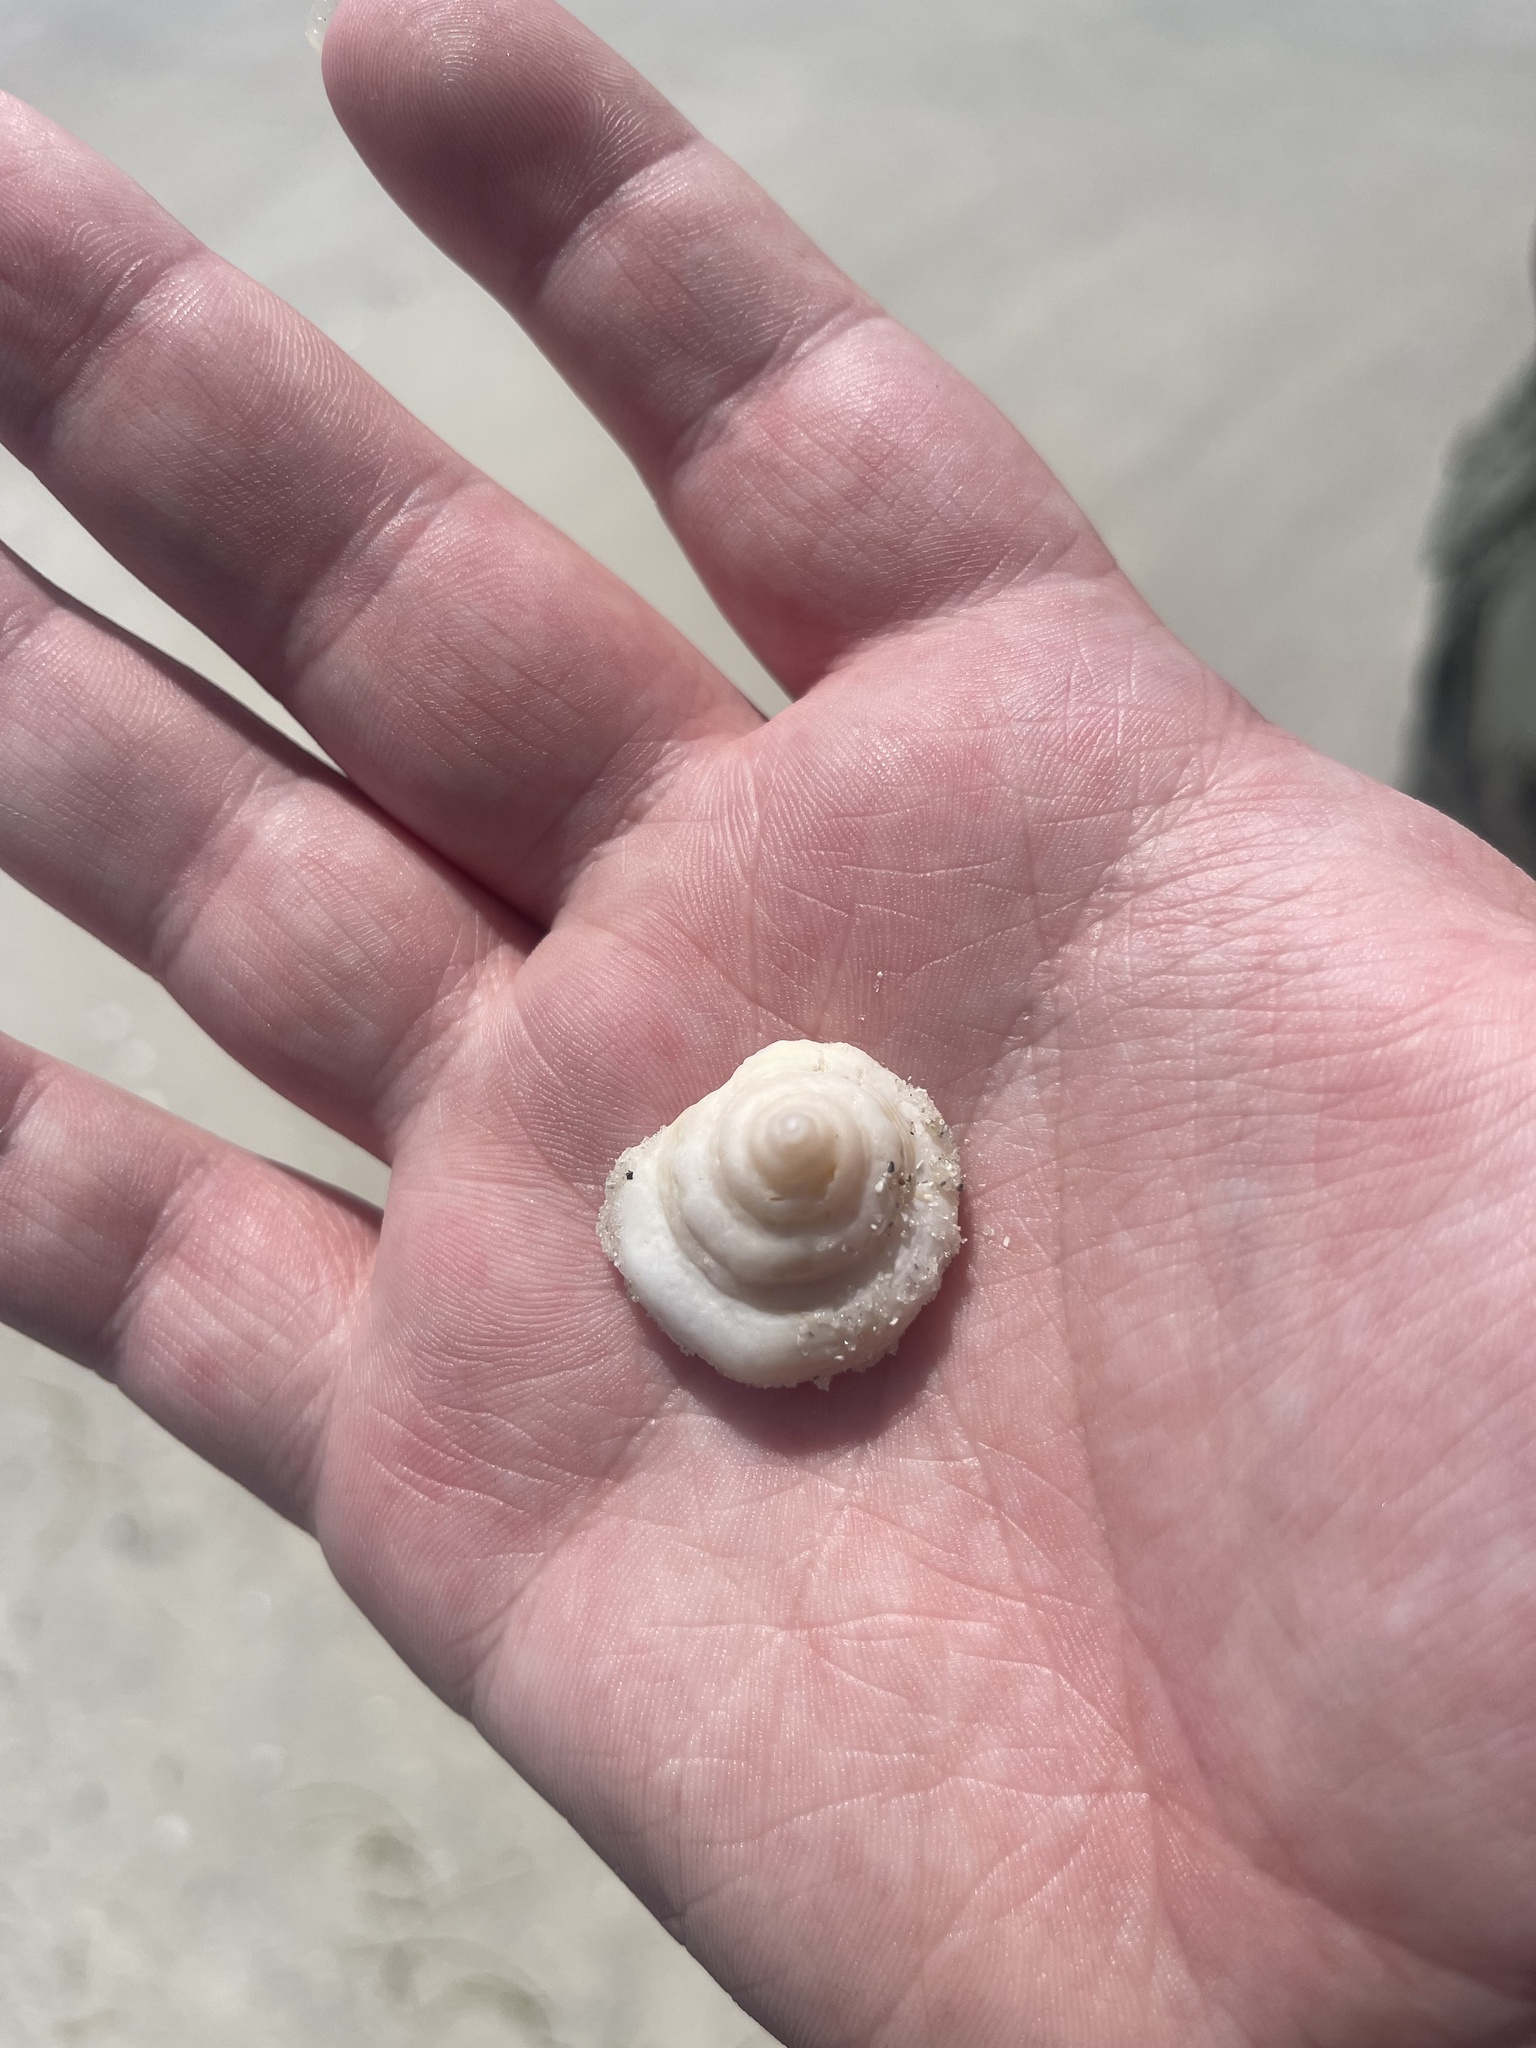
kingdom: Animalia
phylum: Mollusca
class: Gastropoda
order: Neogastropoda
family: Busyconidae
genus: Fulguropsis
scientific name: Fulguropsis pyruloides
